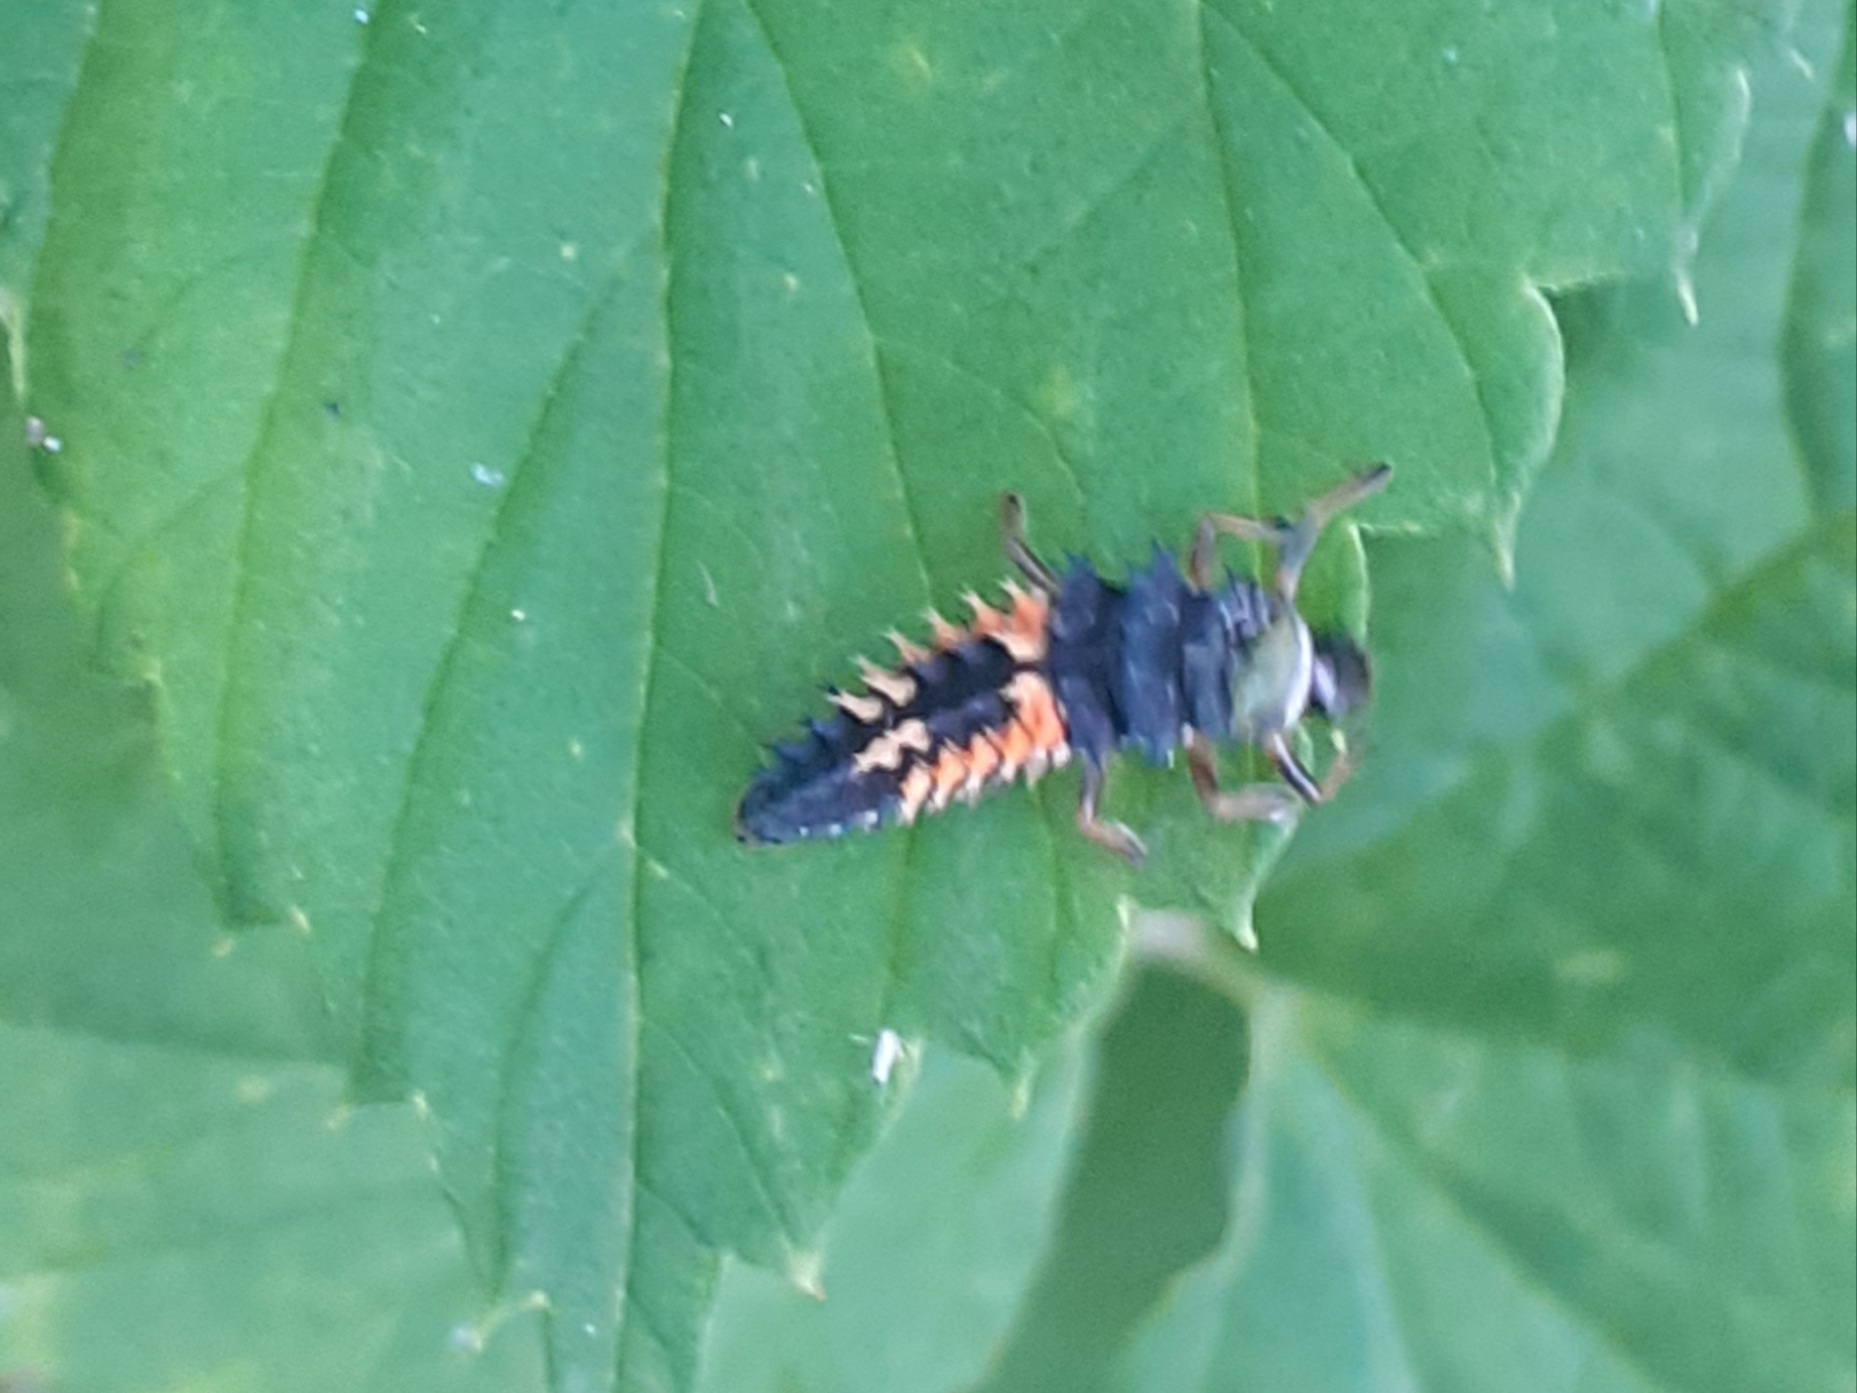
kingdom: Animalia
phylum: Arthropoda
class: Insecta
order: Coleoptera
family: Coccinellidae
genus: Harmonia
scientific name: Harmonia axyridis
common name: Harlequin ladybird
